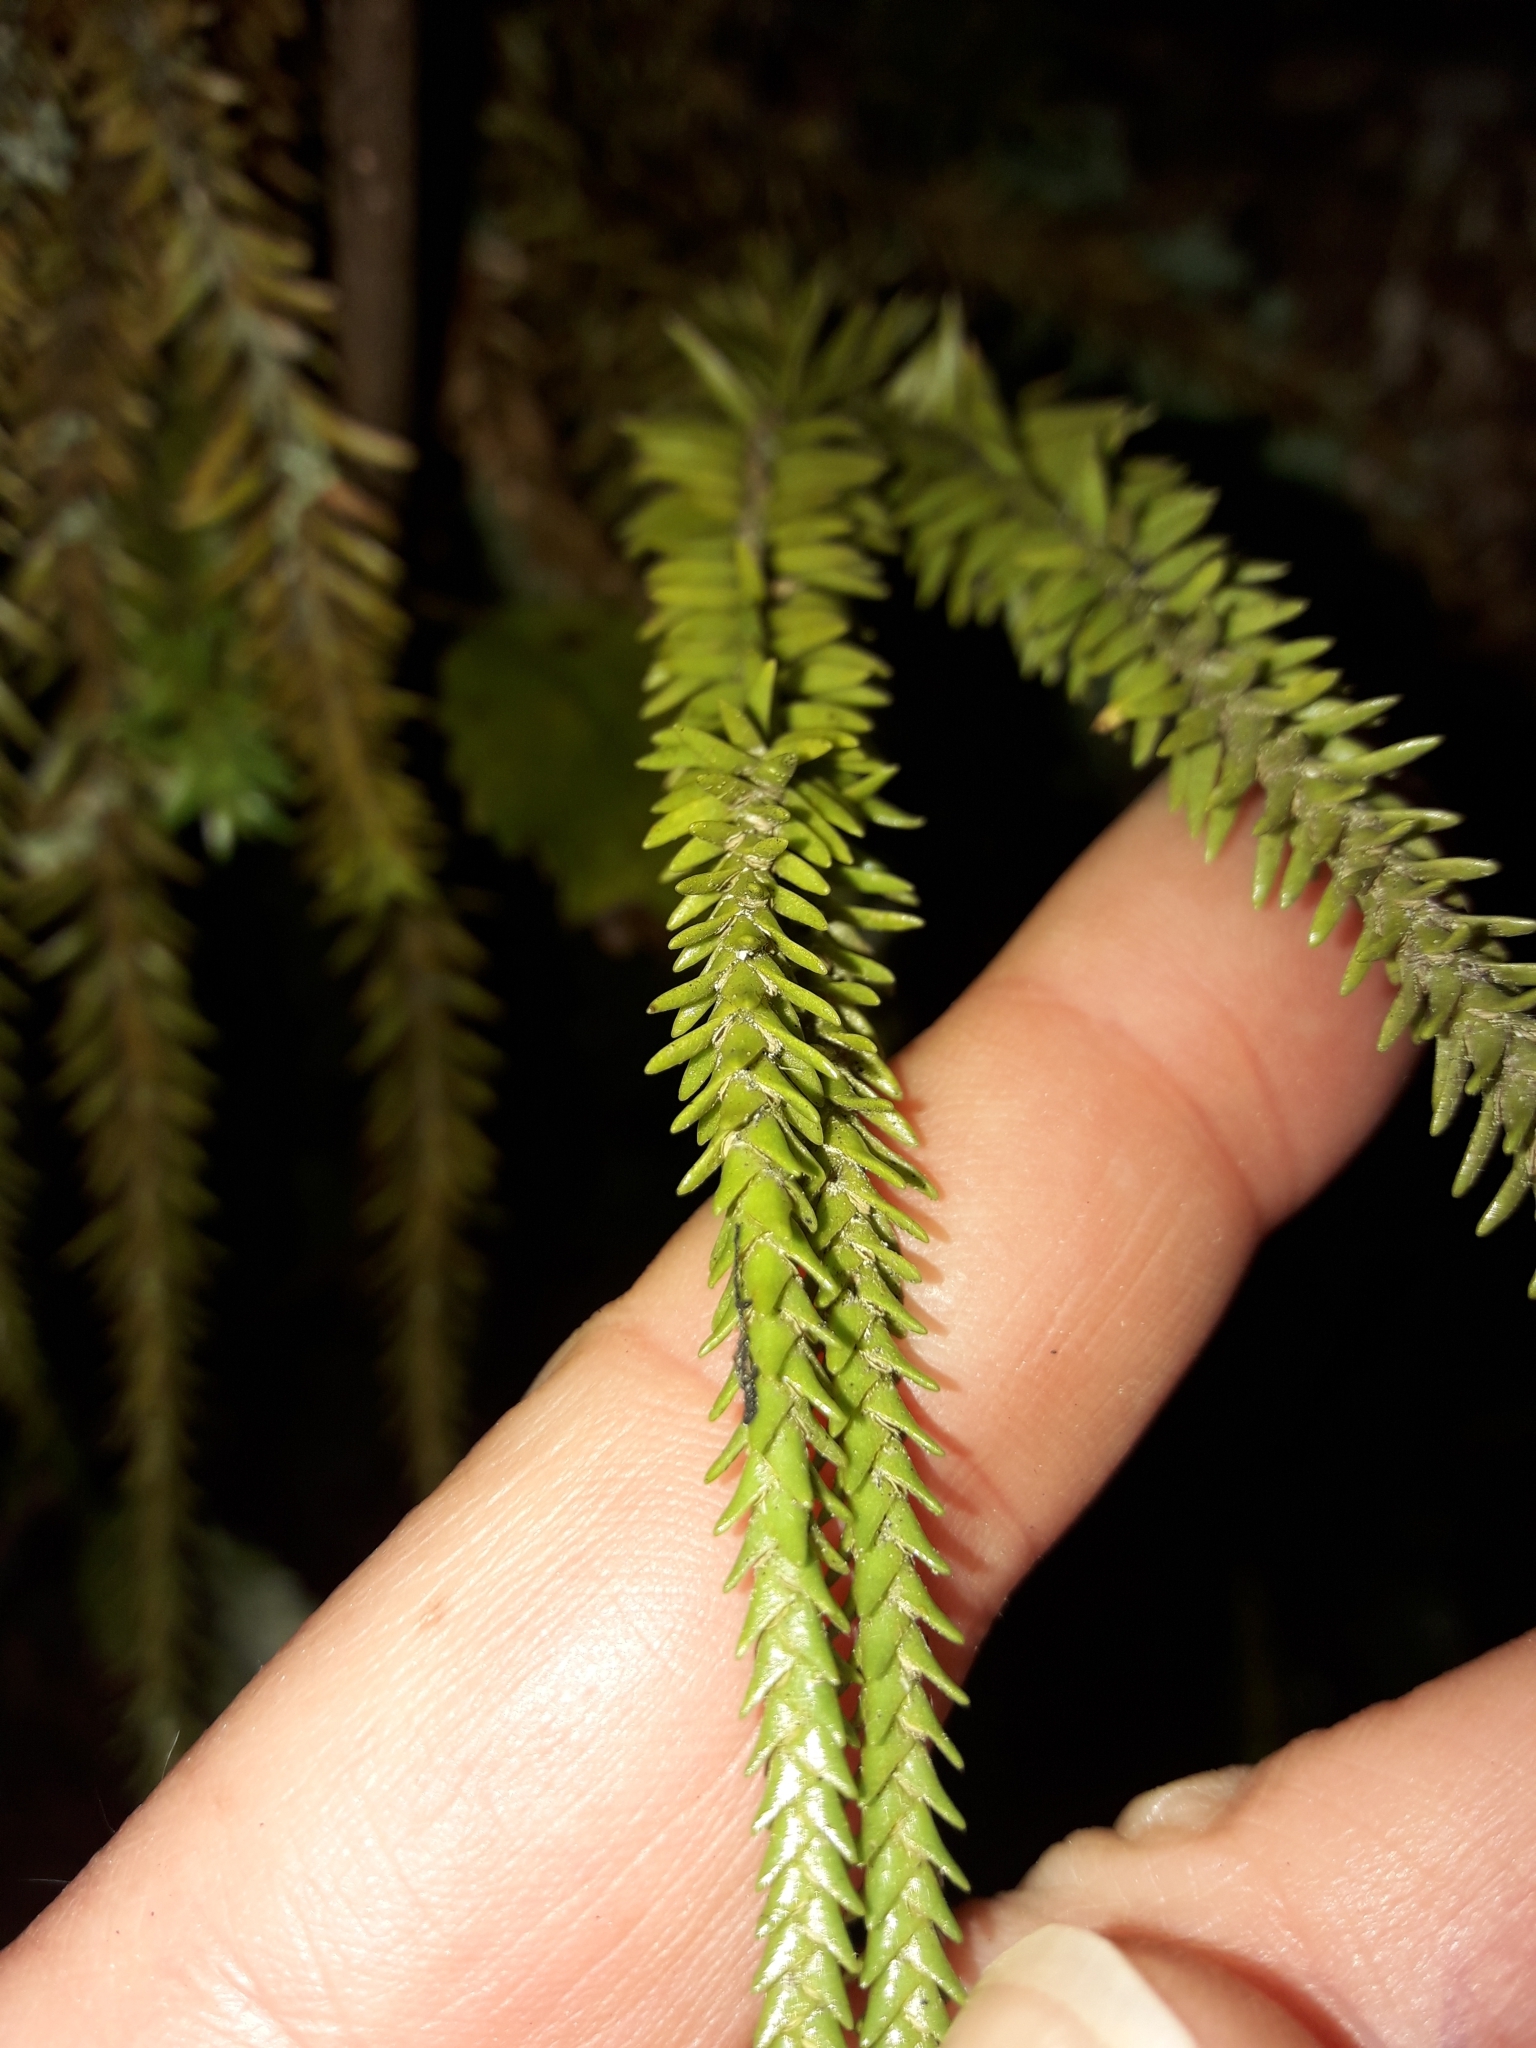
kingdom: Plantae
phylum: Tracheophyta
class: Lycopodiopsida
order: Lycopodiales
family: Lycopodiaceae
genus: Phlegmariurus
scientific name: Phlegmariurus varius
